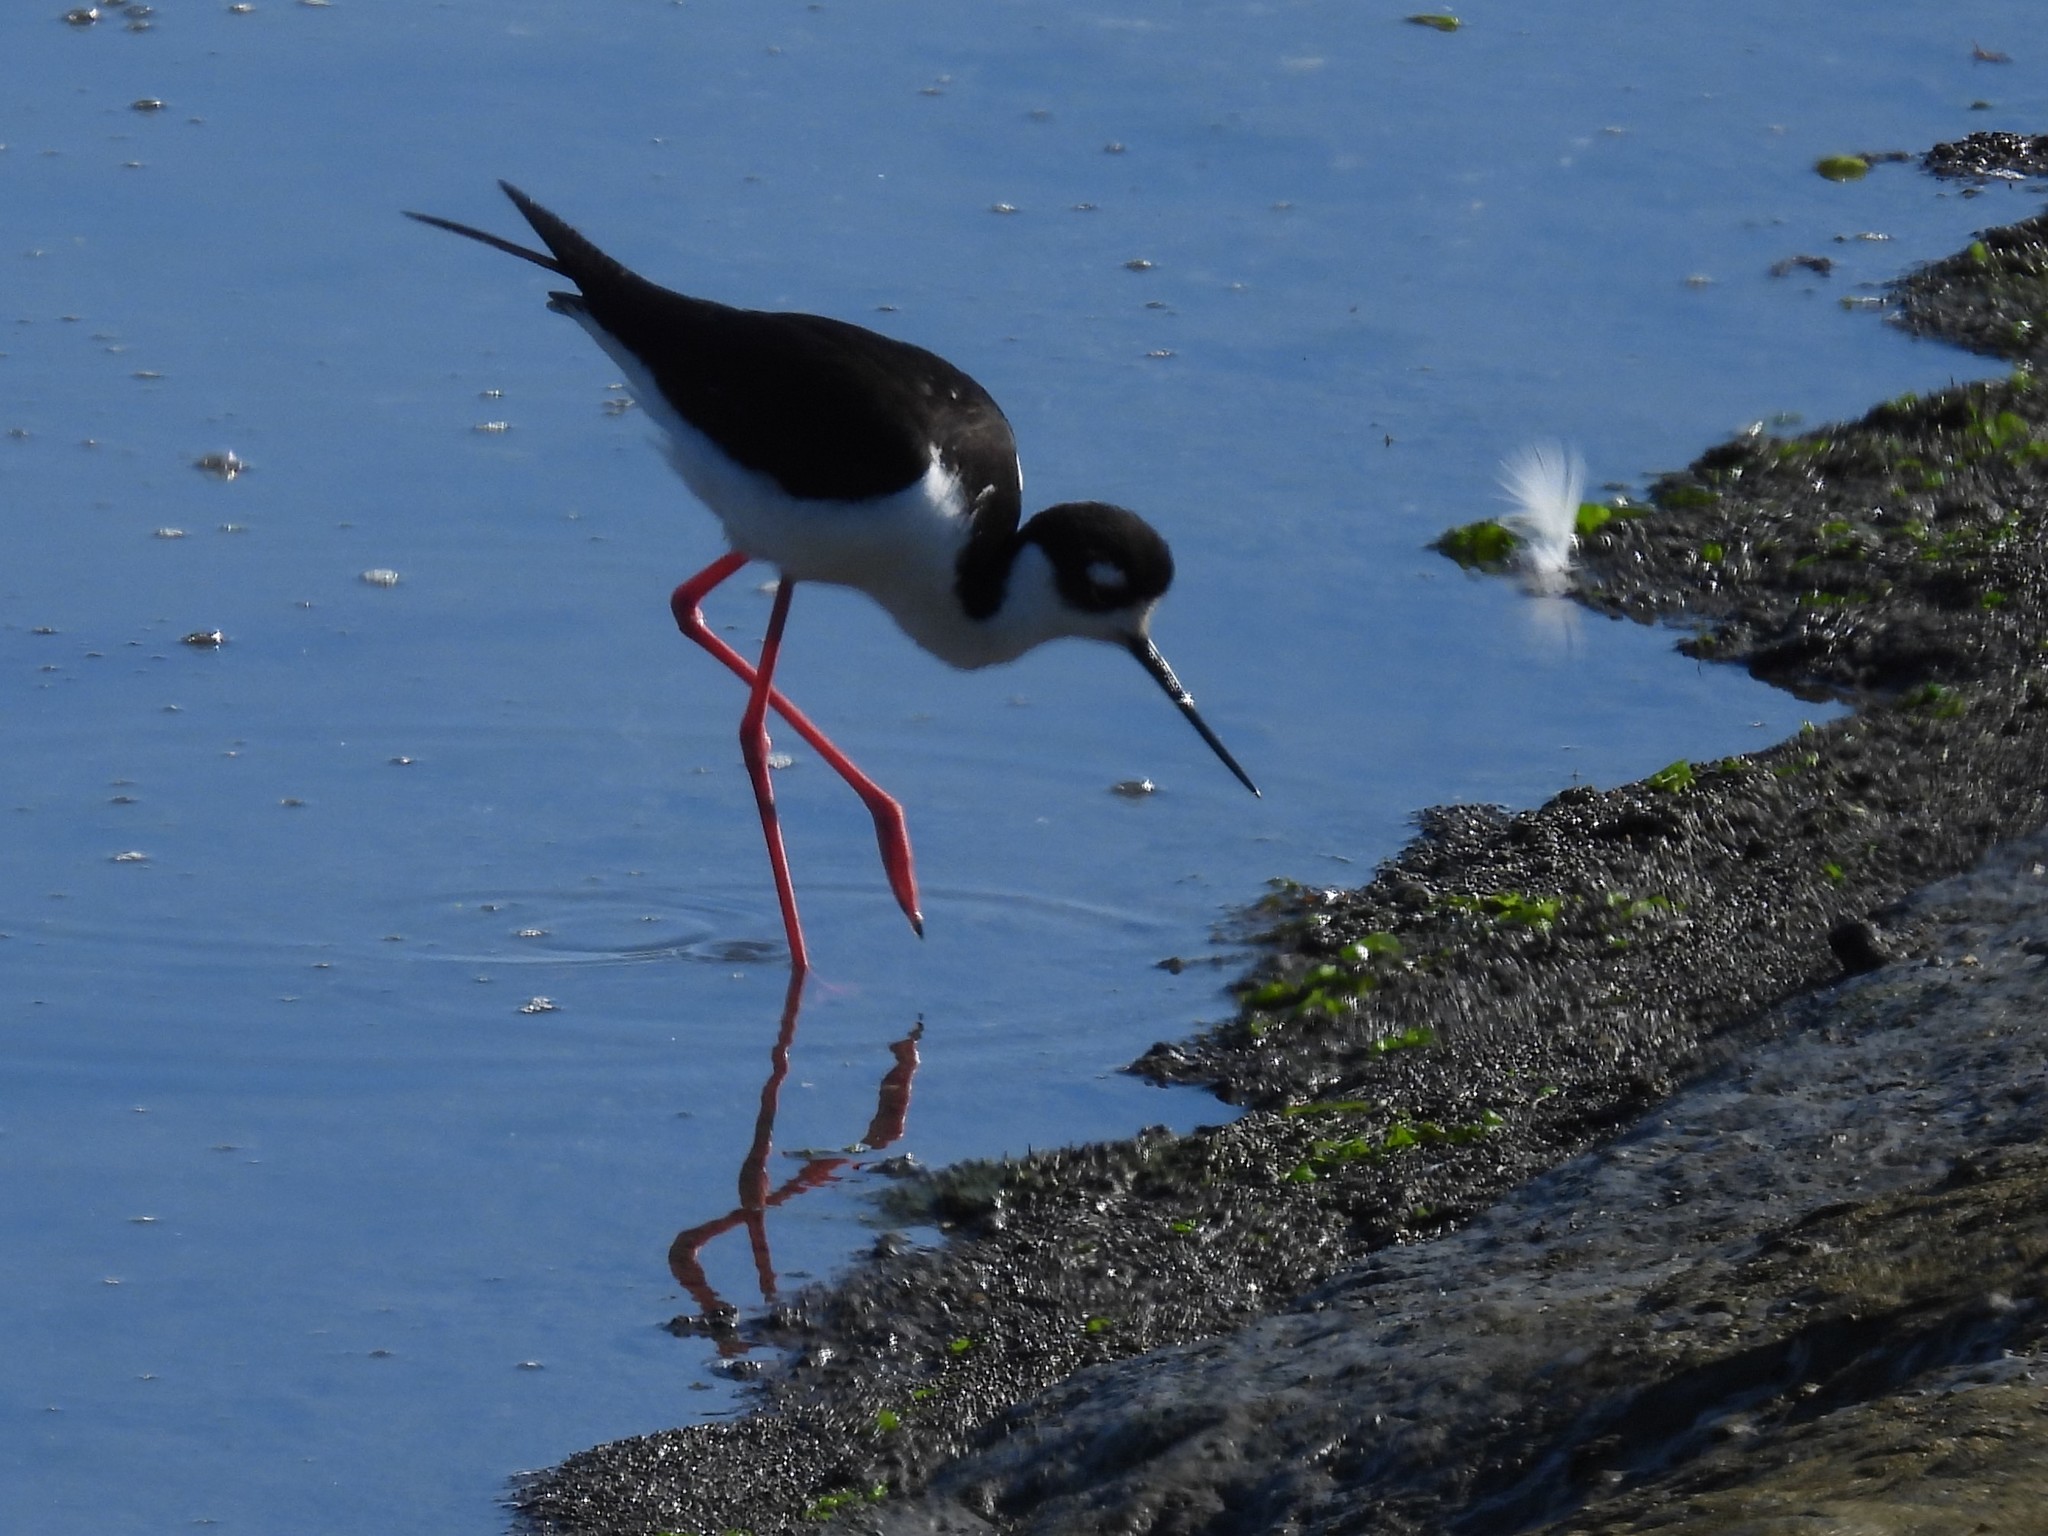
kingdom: Animalia
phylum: Chordata
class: Aves
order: Charadriiformes
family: Recurvirostridae
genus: Himantopus
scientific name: Himantopus mexicanus
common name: Black-necked stilt
